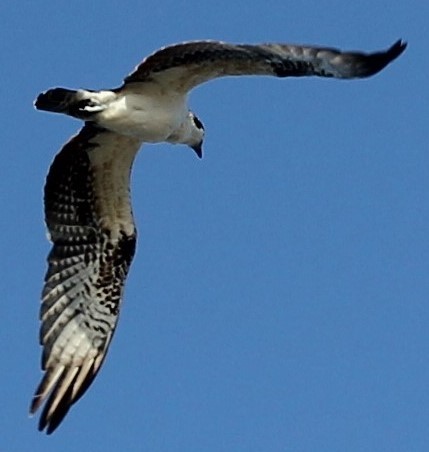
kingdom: Animalia
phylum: Chordata
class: Aves
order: Accipitriformes
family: Pandionidae
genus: Pandion
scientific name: Pandion haliaetus
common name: Osprey
